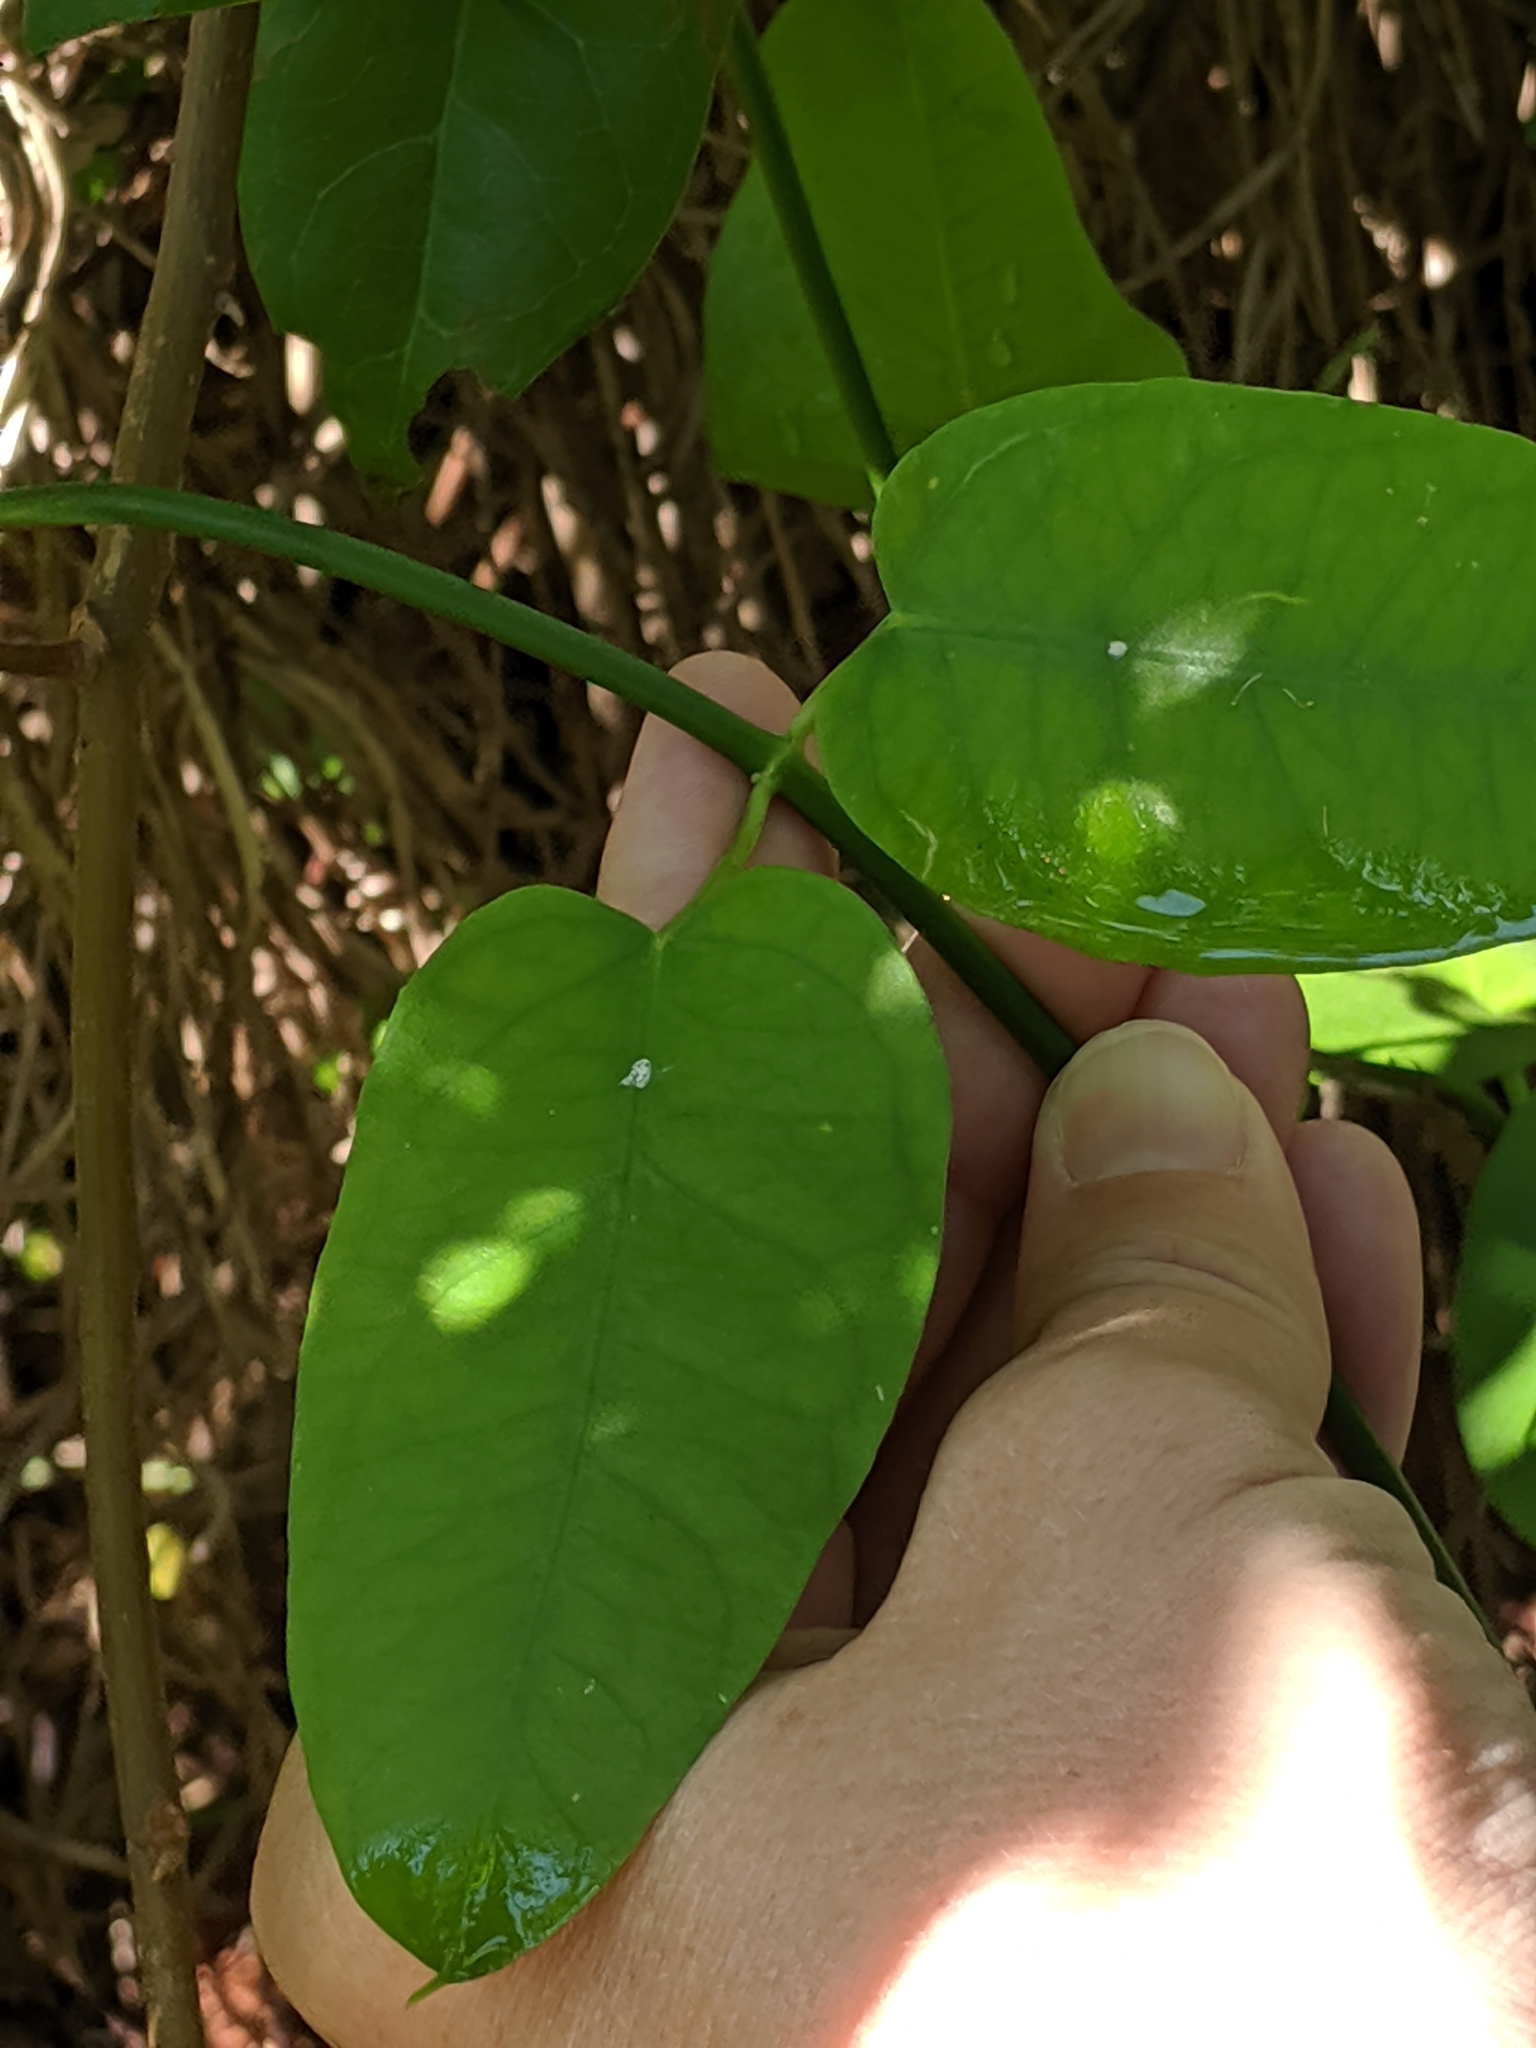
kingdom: Plantae
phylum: Tracheophyta
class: Magnoliopsida
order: Gentianales
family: Apocynaceae
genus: Funastrum
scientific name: Funastrum clausum
